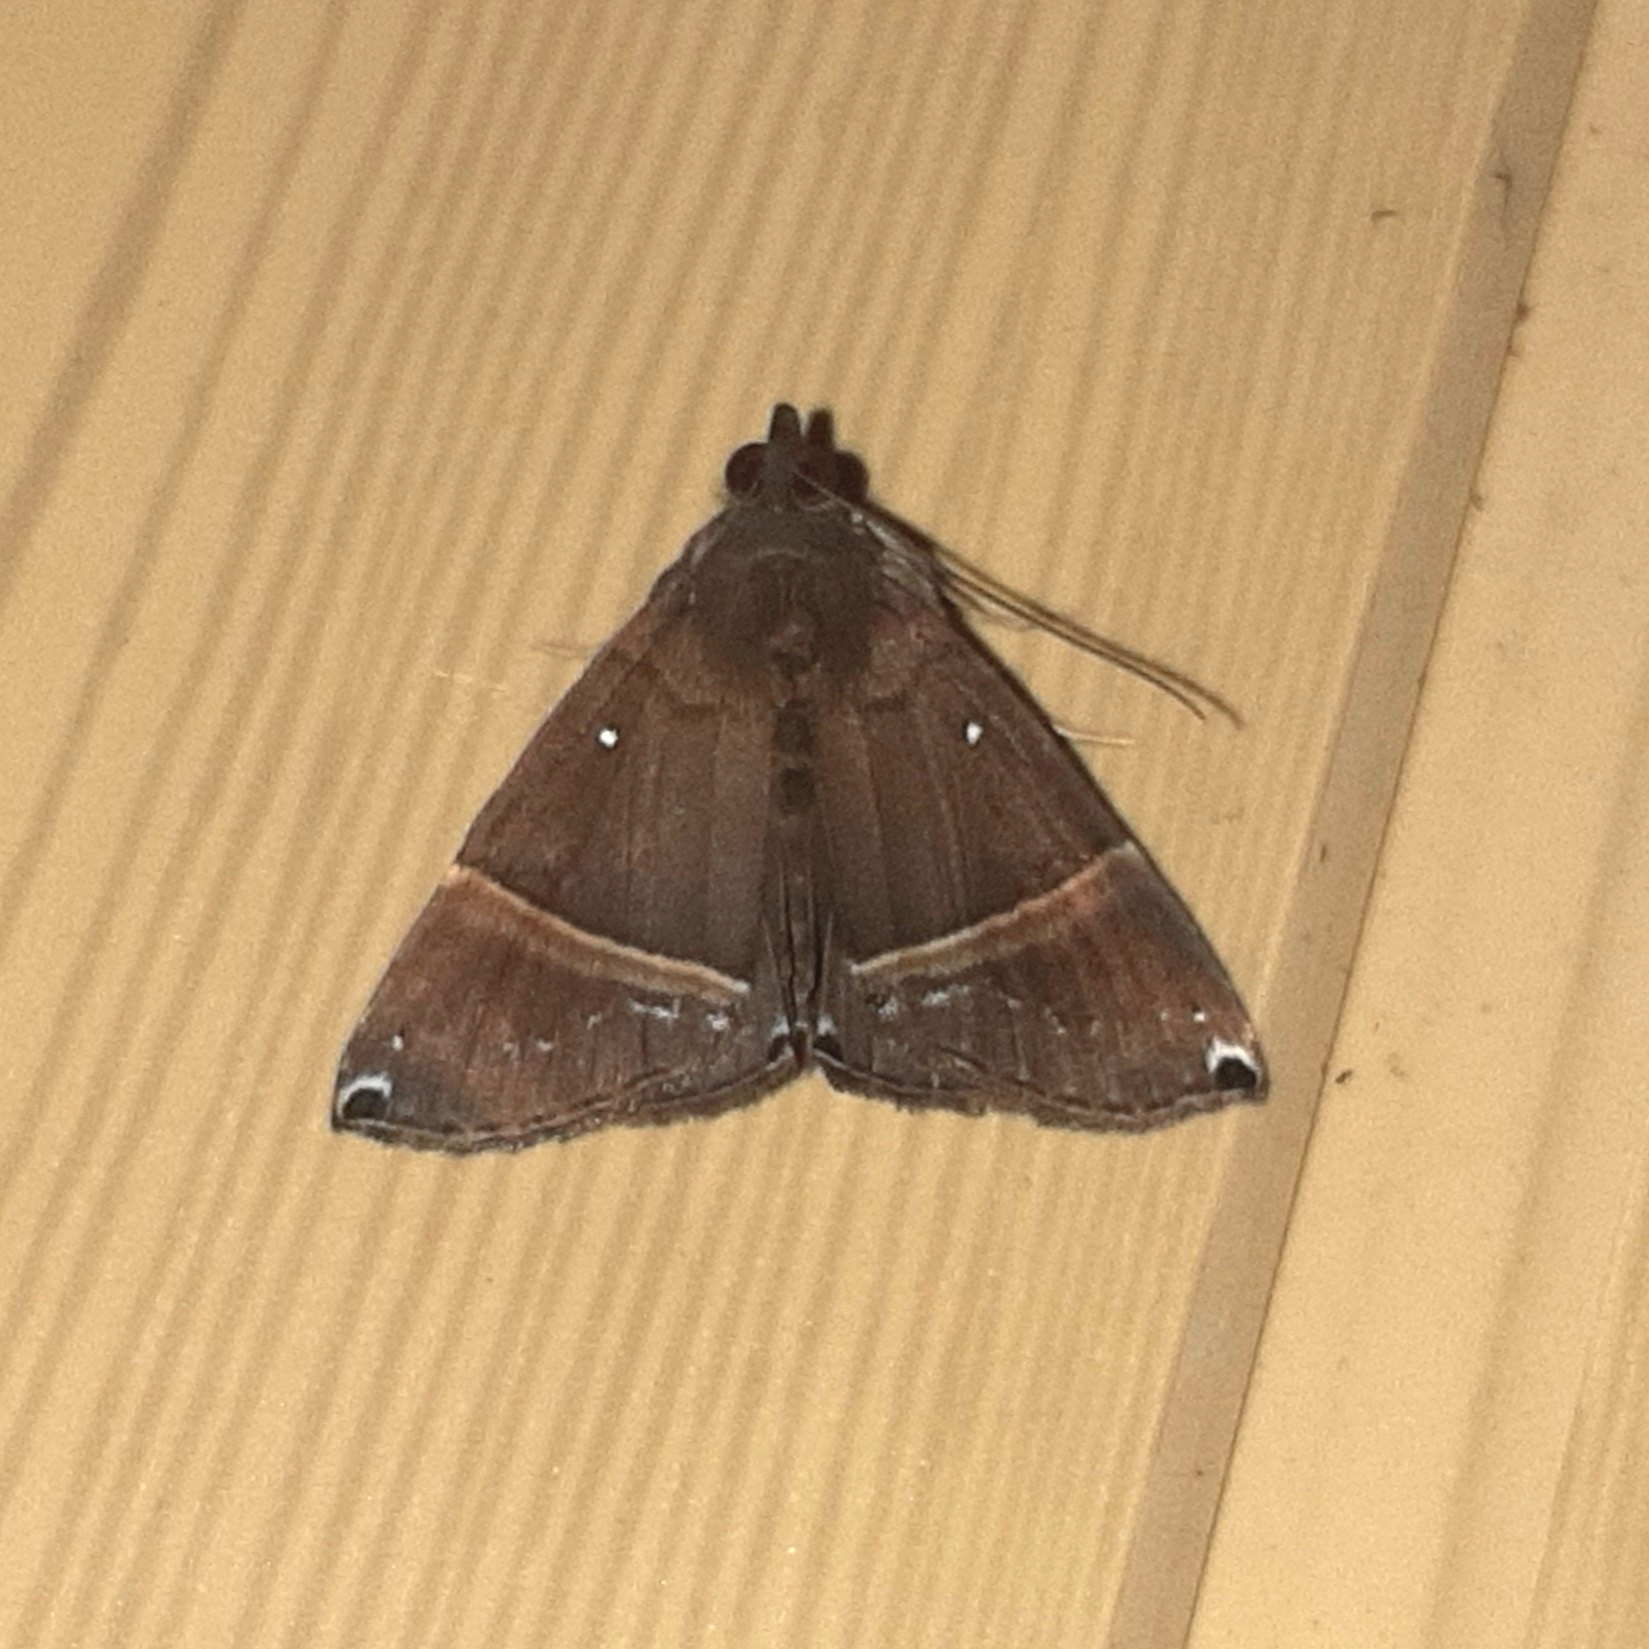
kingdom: Animalia
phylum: Arthropoda
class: Insecta
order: Lepidoptera
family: Erebidae
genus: Hypena
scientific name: Hypena zarabena
